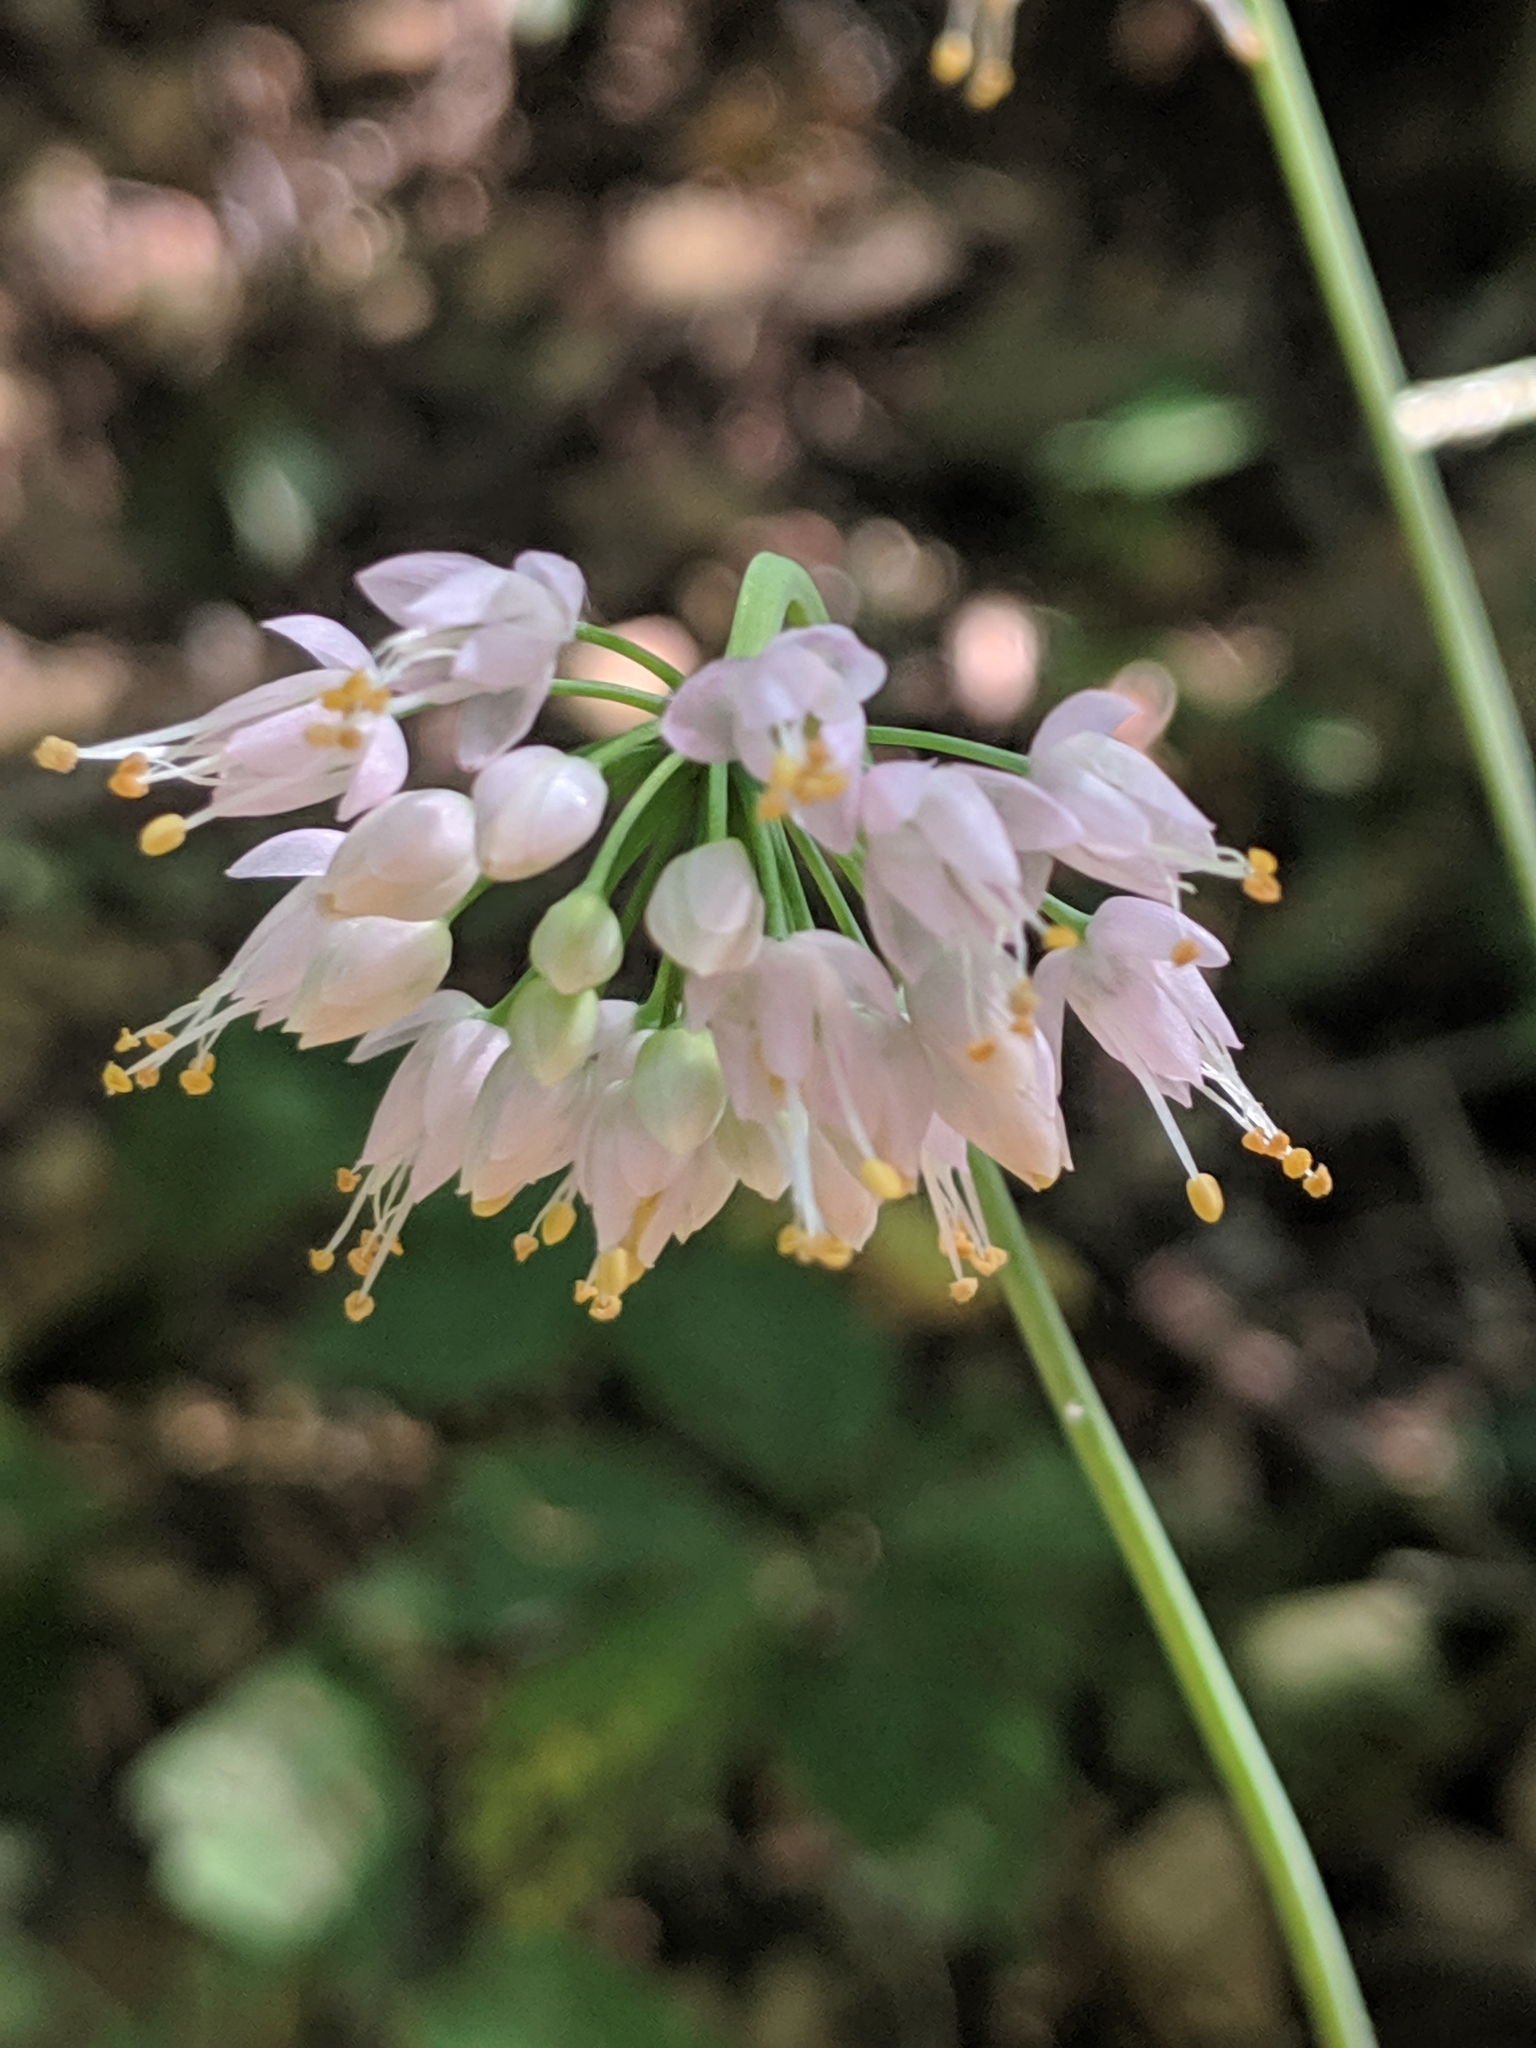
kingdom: Plantae
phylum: Tracheophyta
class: Liliopsida
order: Asparagales
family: Amaryllidaceae
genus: Allium
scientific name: Allium cernuum
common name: Nodding onion
